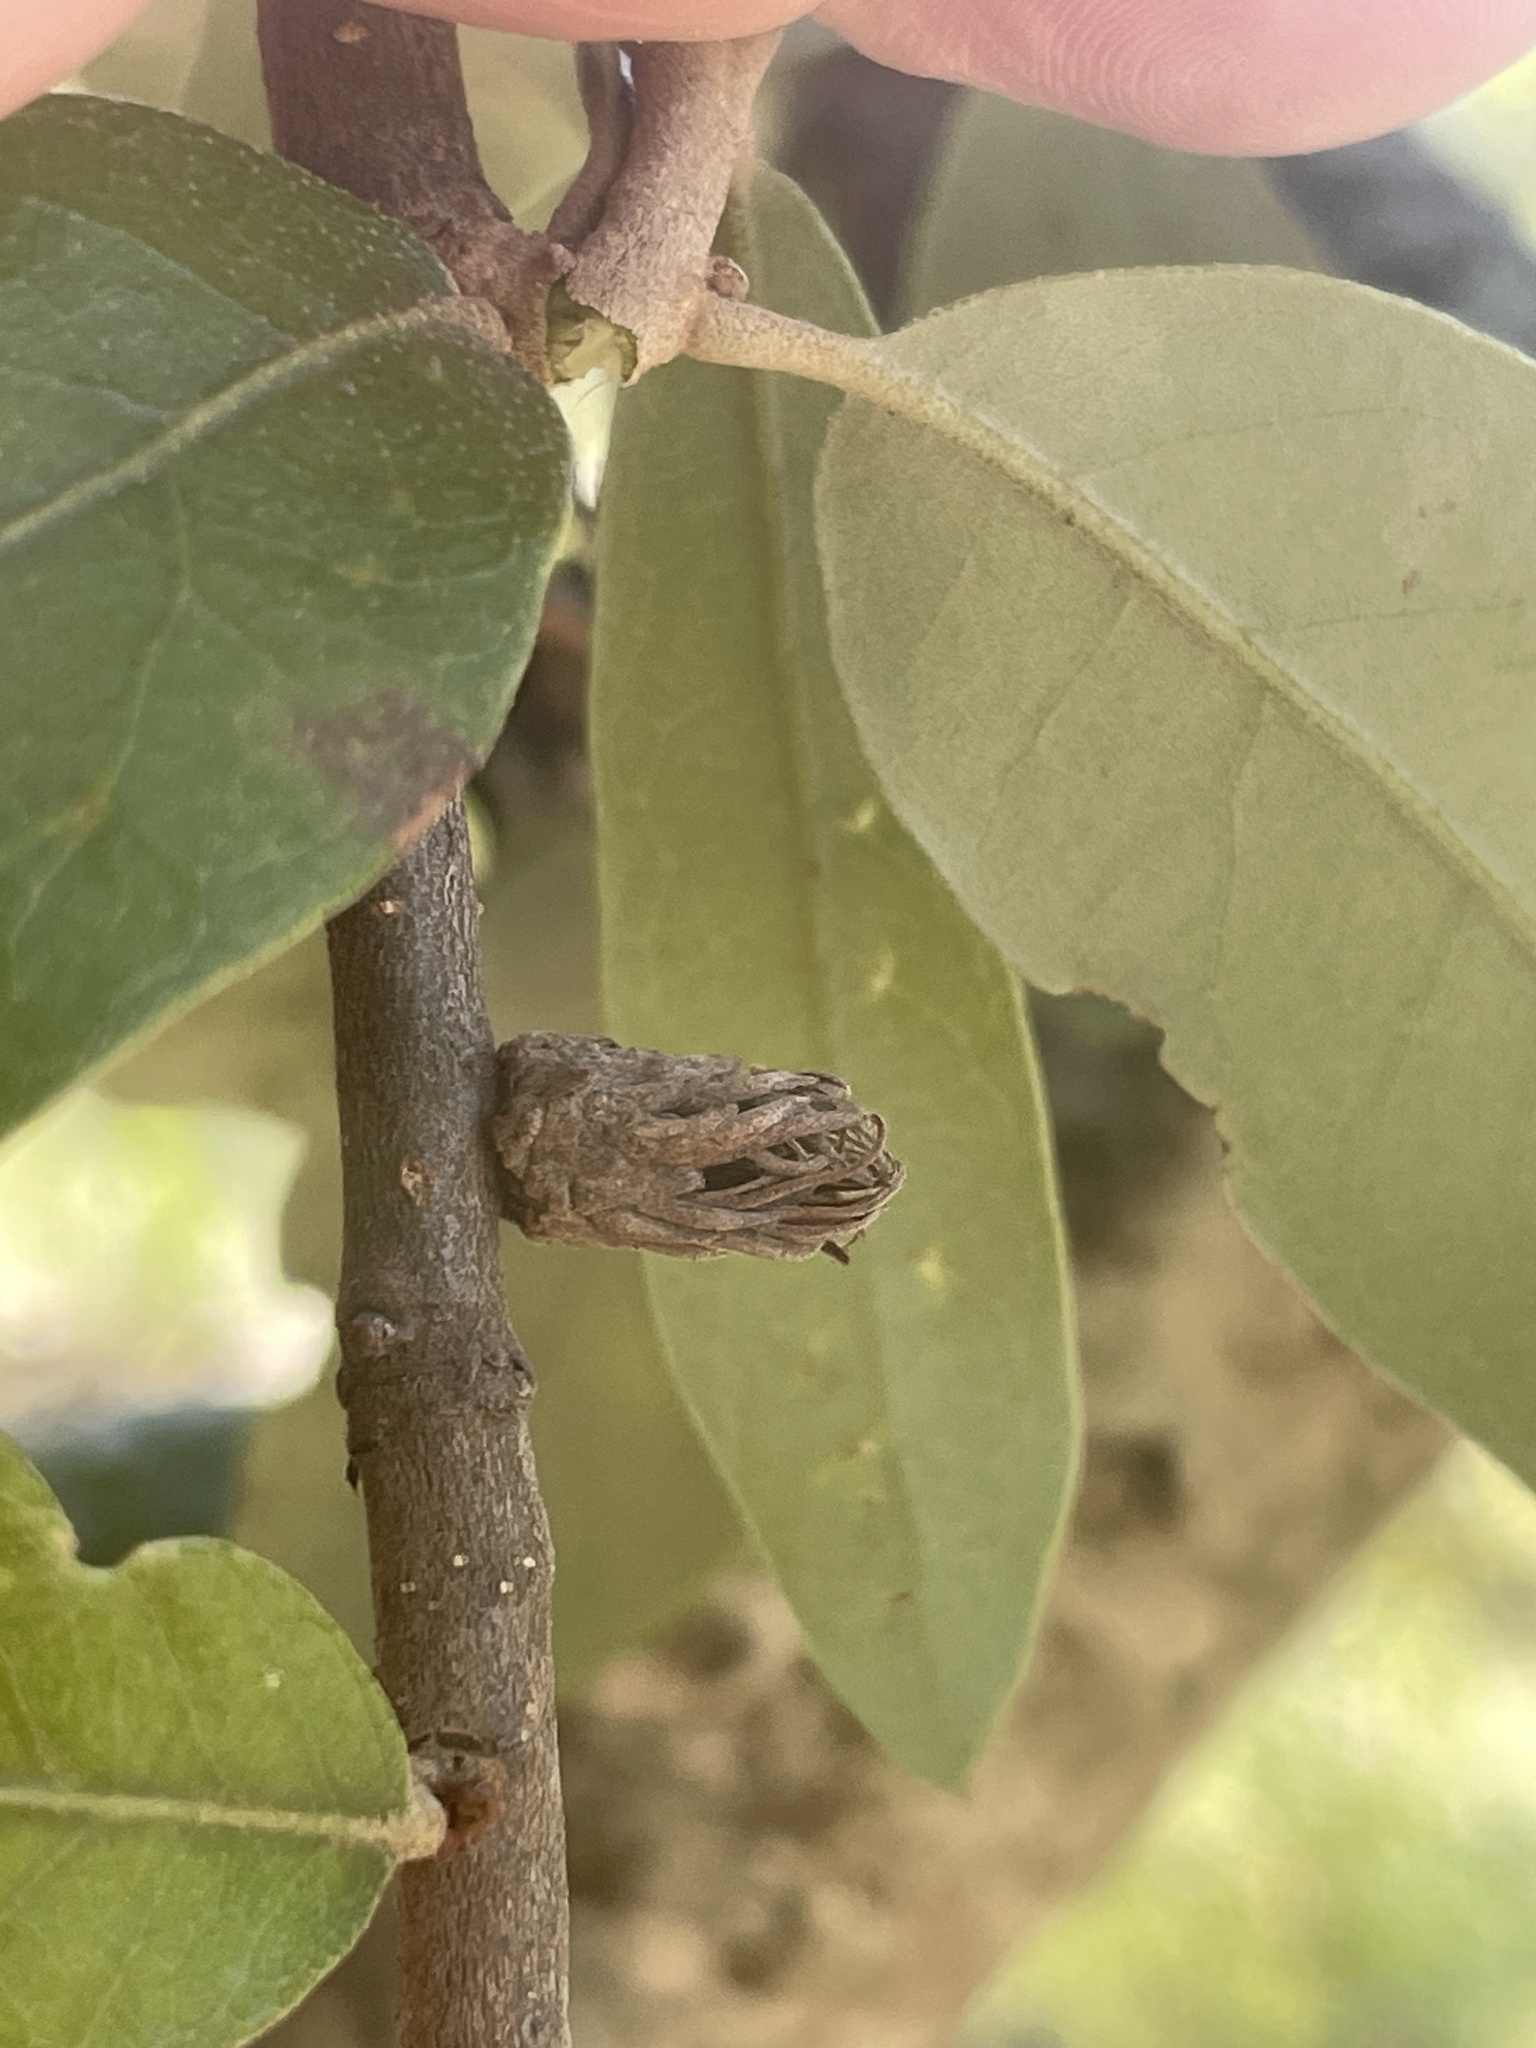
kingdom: Animalia
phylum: Arthropoda
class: Insecta
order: Hymenoptera
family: Cynipidae
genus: Andricus
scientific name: Andricus quercusfoliatus
